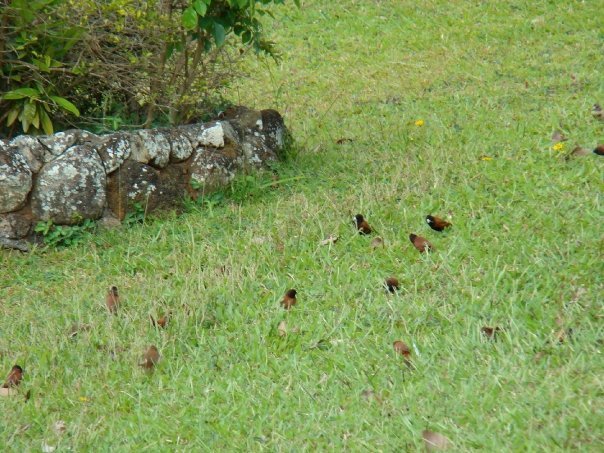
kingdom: Animalia
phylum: Chordata
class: Aves
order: Passeriformes
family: Estrildidae
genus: Lonchura
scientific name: Lonchura atricapilla
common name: Chestnut munia
